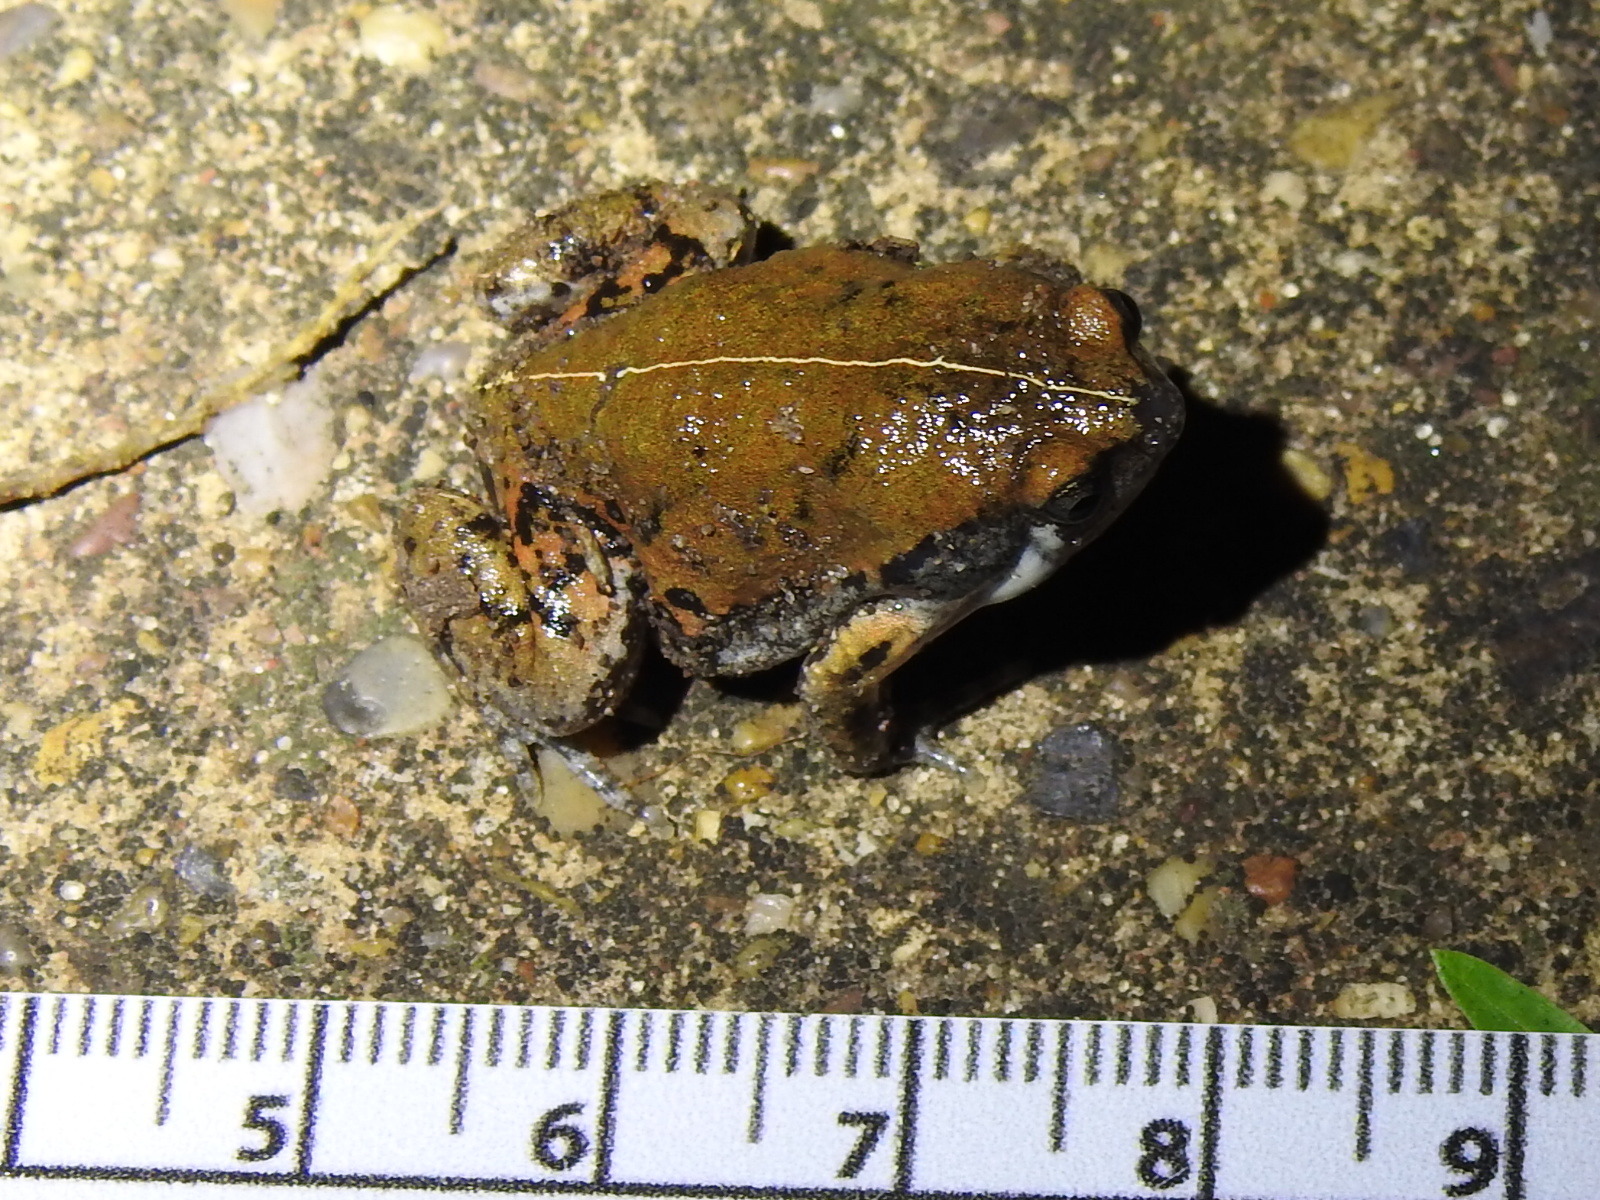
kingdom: Animalia
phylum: Chordata
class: Amphibia
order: Anura
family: Microhylidae
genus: Hypopachus
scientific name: Hypopachus variolosus
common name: Sheep frog
